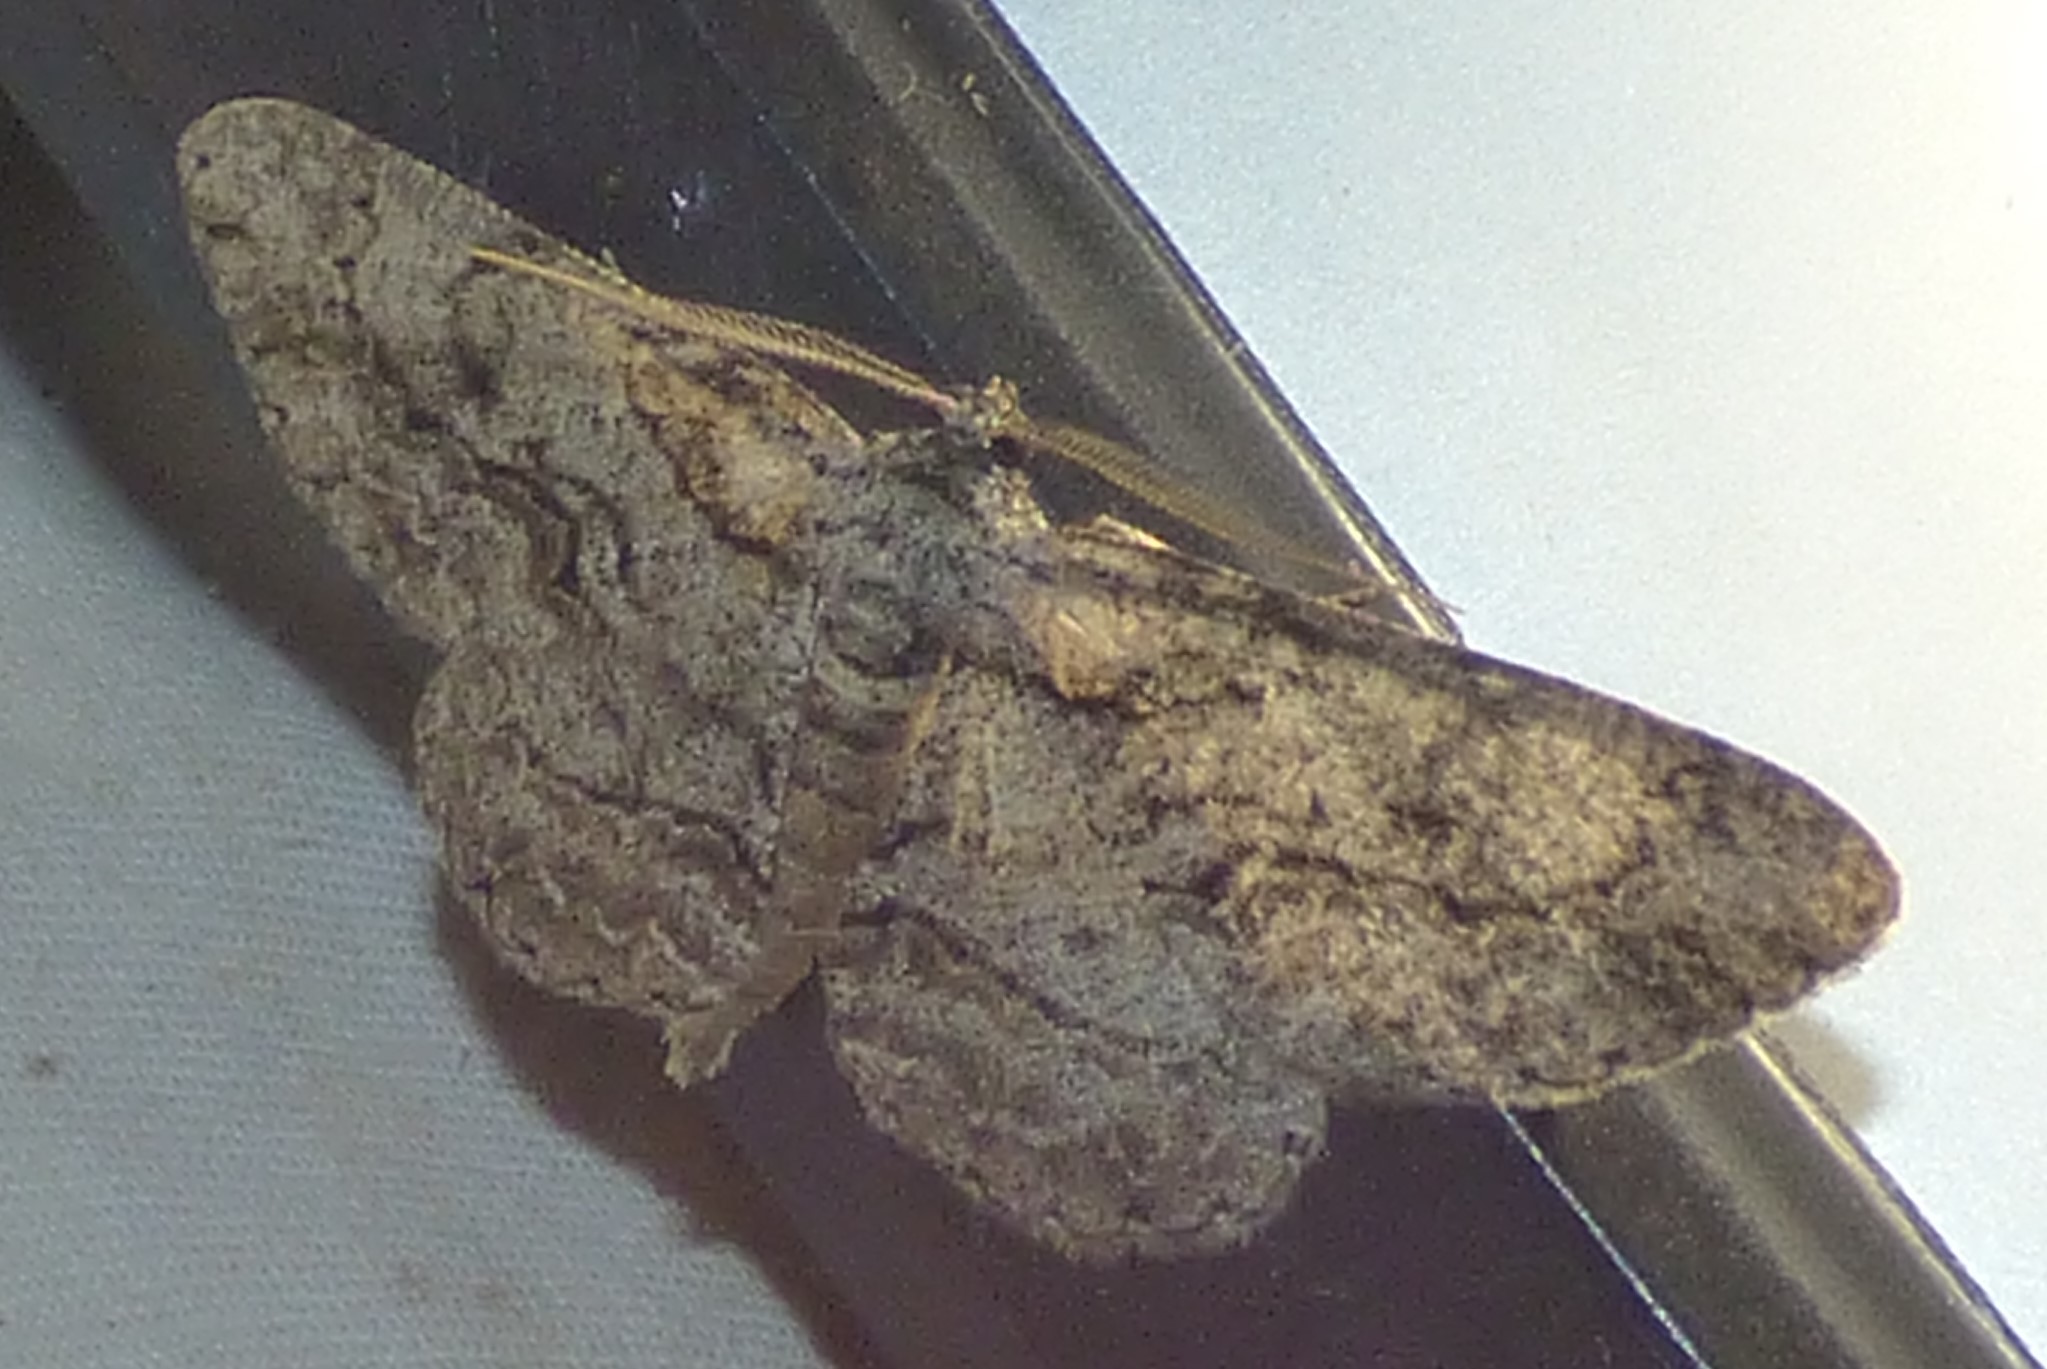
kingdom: Animalia
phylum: Arthropoda
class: Insecta
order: Lepidoptera
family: Geometridae
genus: Anavitrinella
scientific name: Anavitrinella pampinaria
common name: Common gray
